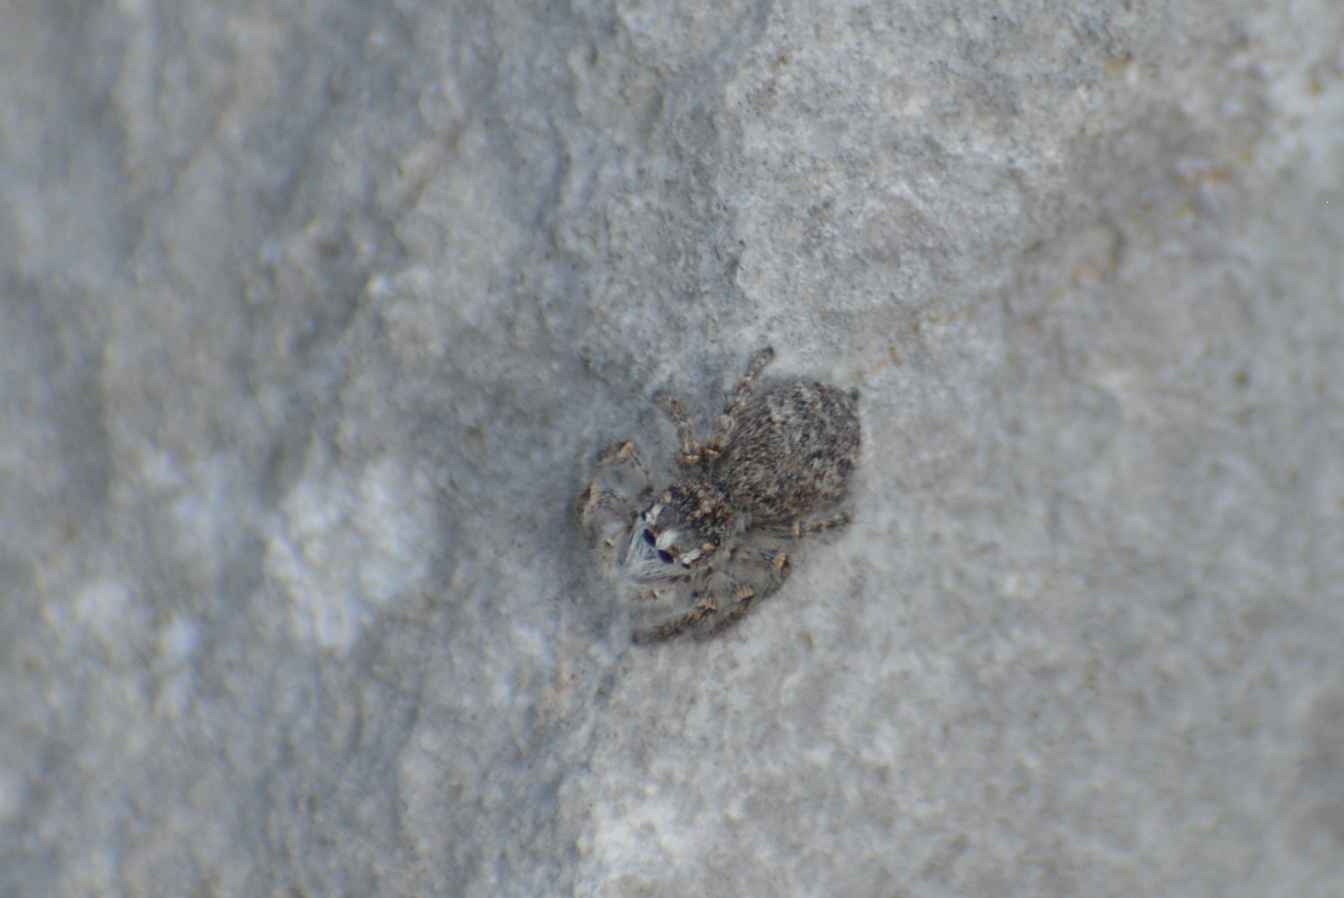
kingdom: Animalia
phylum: Arthropoda
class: Arachnida
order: Araneae
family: Salticidae
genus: Philaeus
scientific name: Philaeus chrysops
